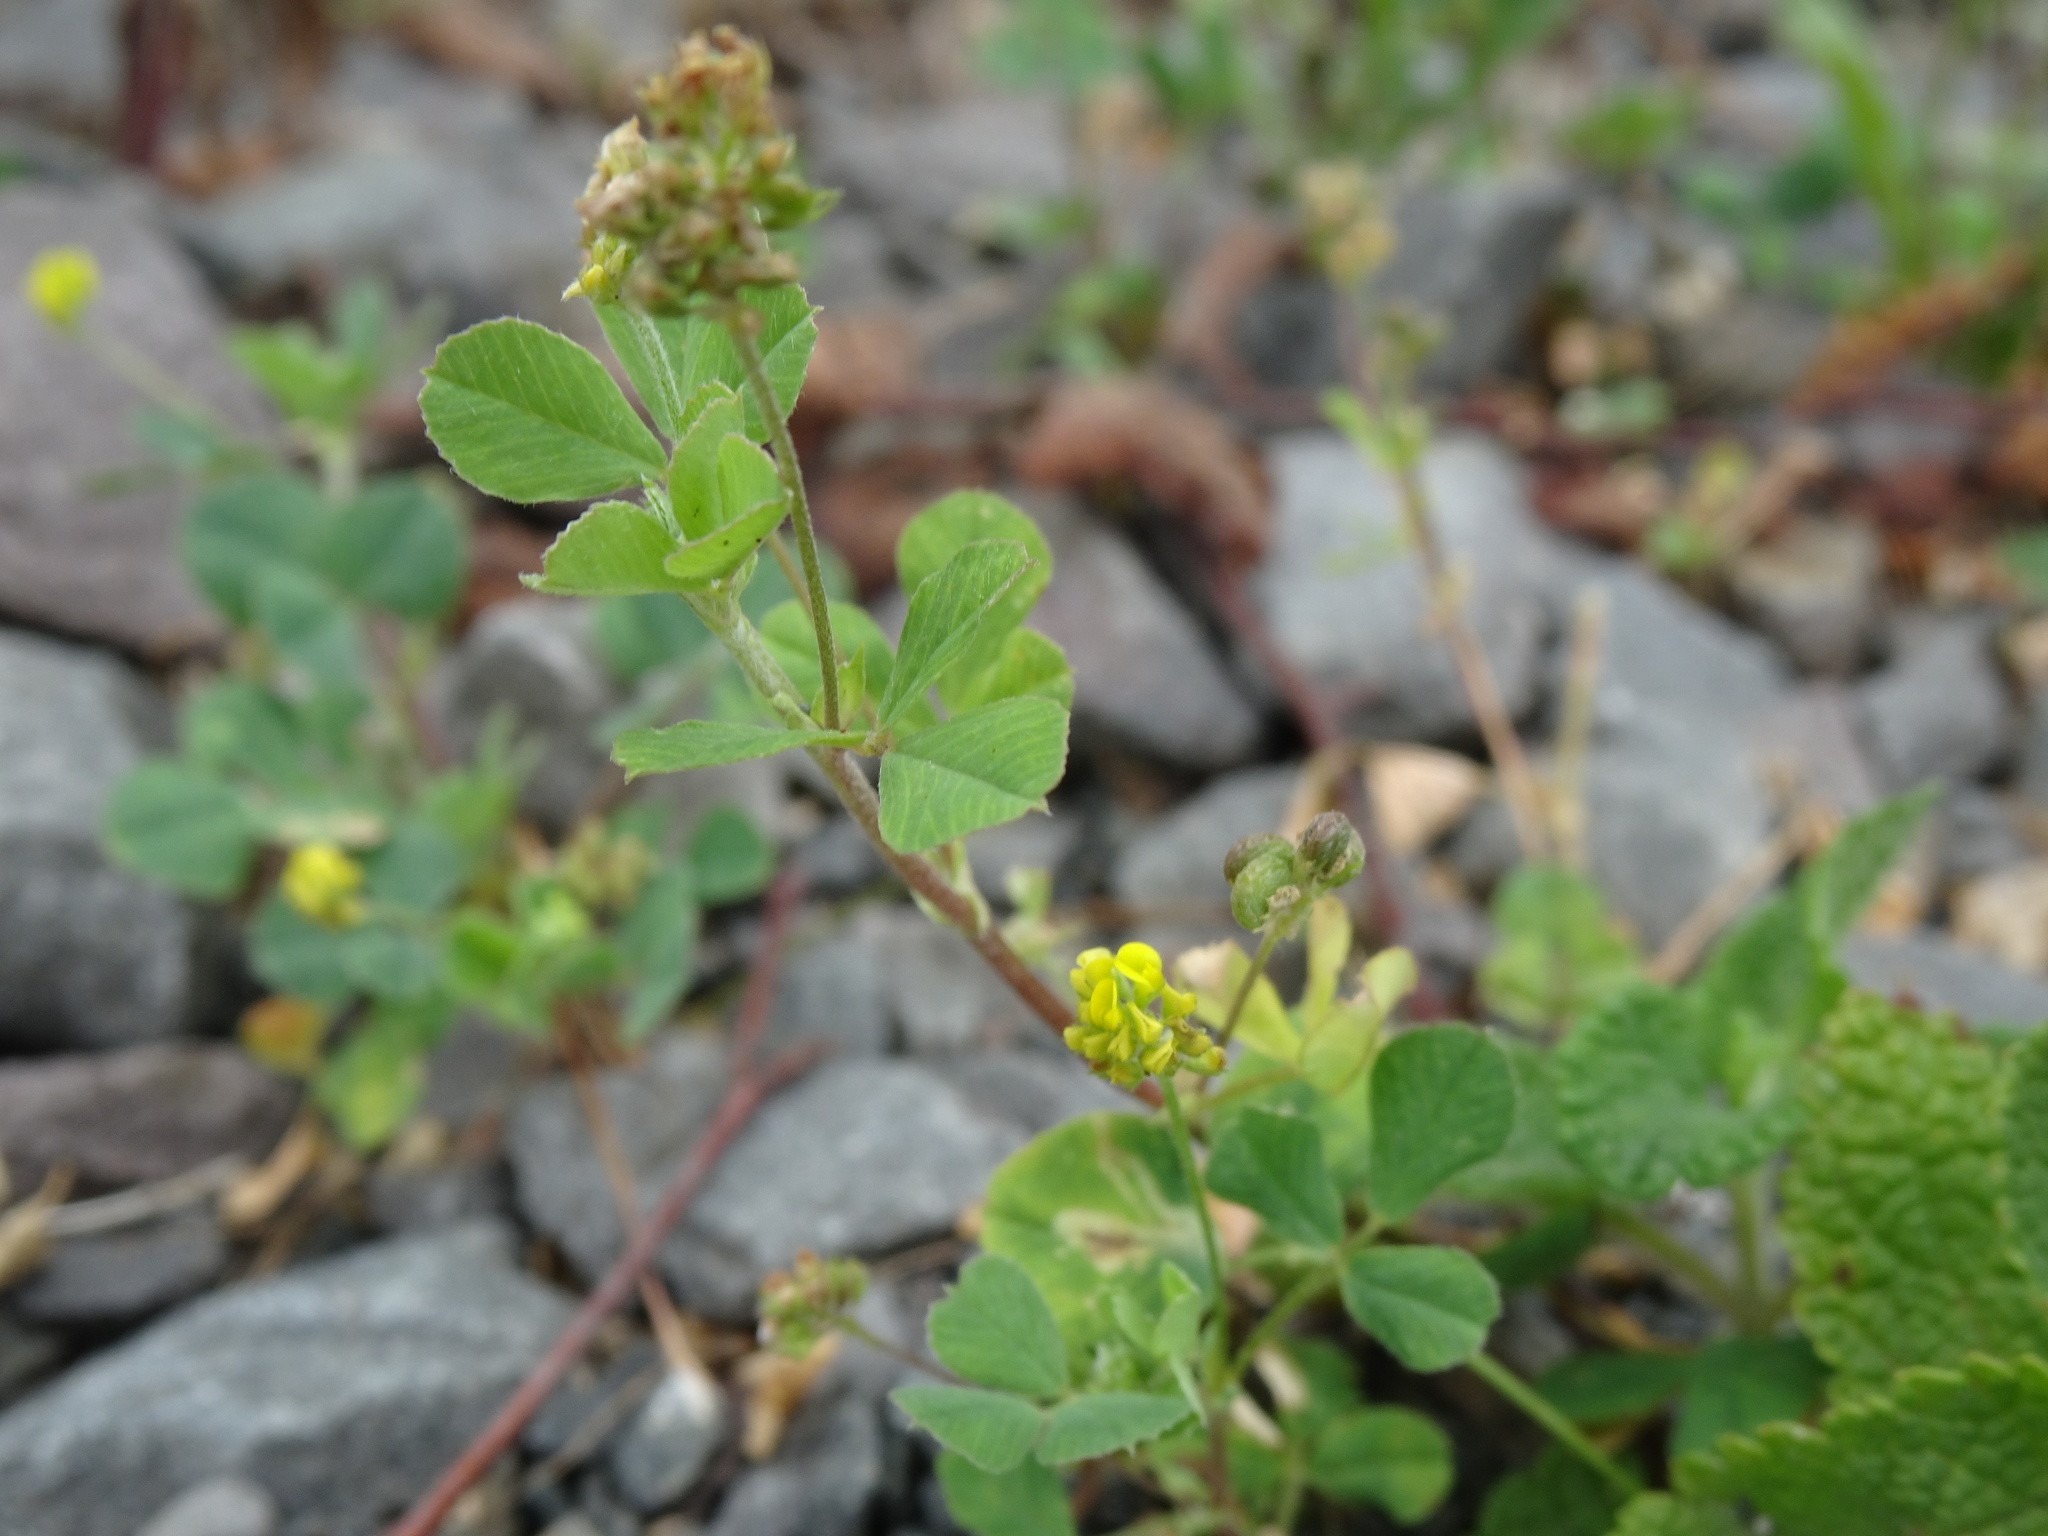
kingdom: Plantae
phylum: Tracheophyta
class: Magnoliopsida
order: Fabales
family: Fabaceae
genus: Medicago
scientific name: Medicago lupulina
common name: Black medick
